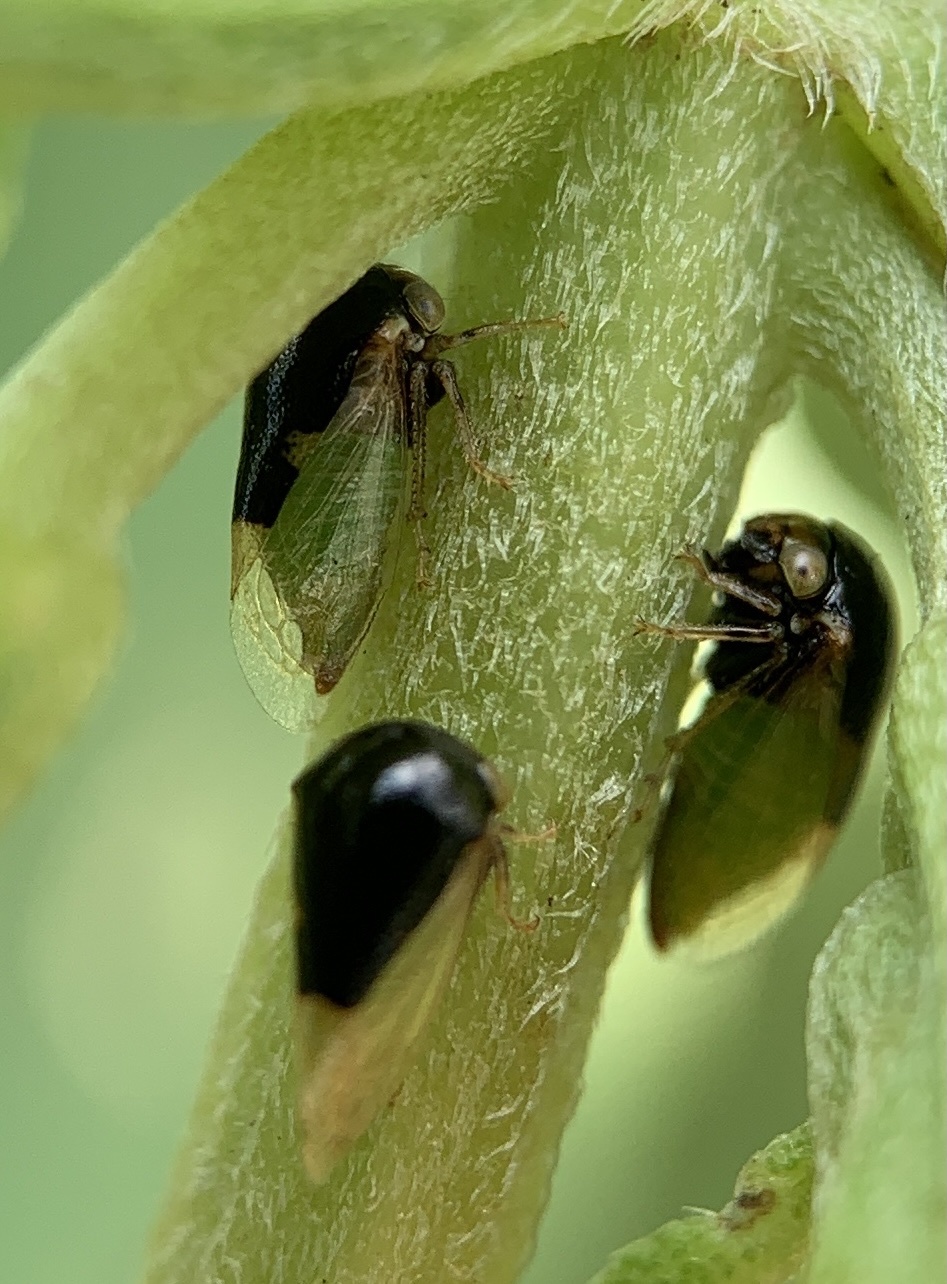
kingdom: Animalia
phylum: Arthropoda
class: Insecta
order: Hemiptera
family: Membracidae
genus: Micrutalis
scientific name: Micrutalis calva
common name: Honeylocust treehopper
